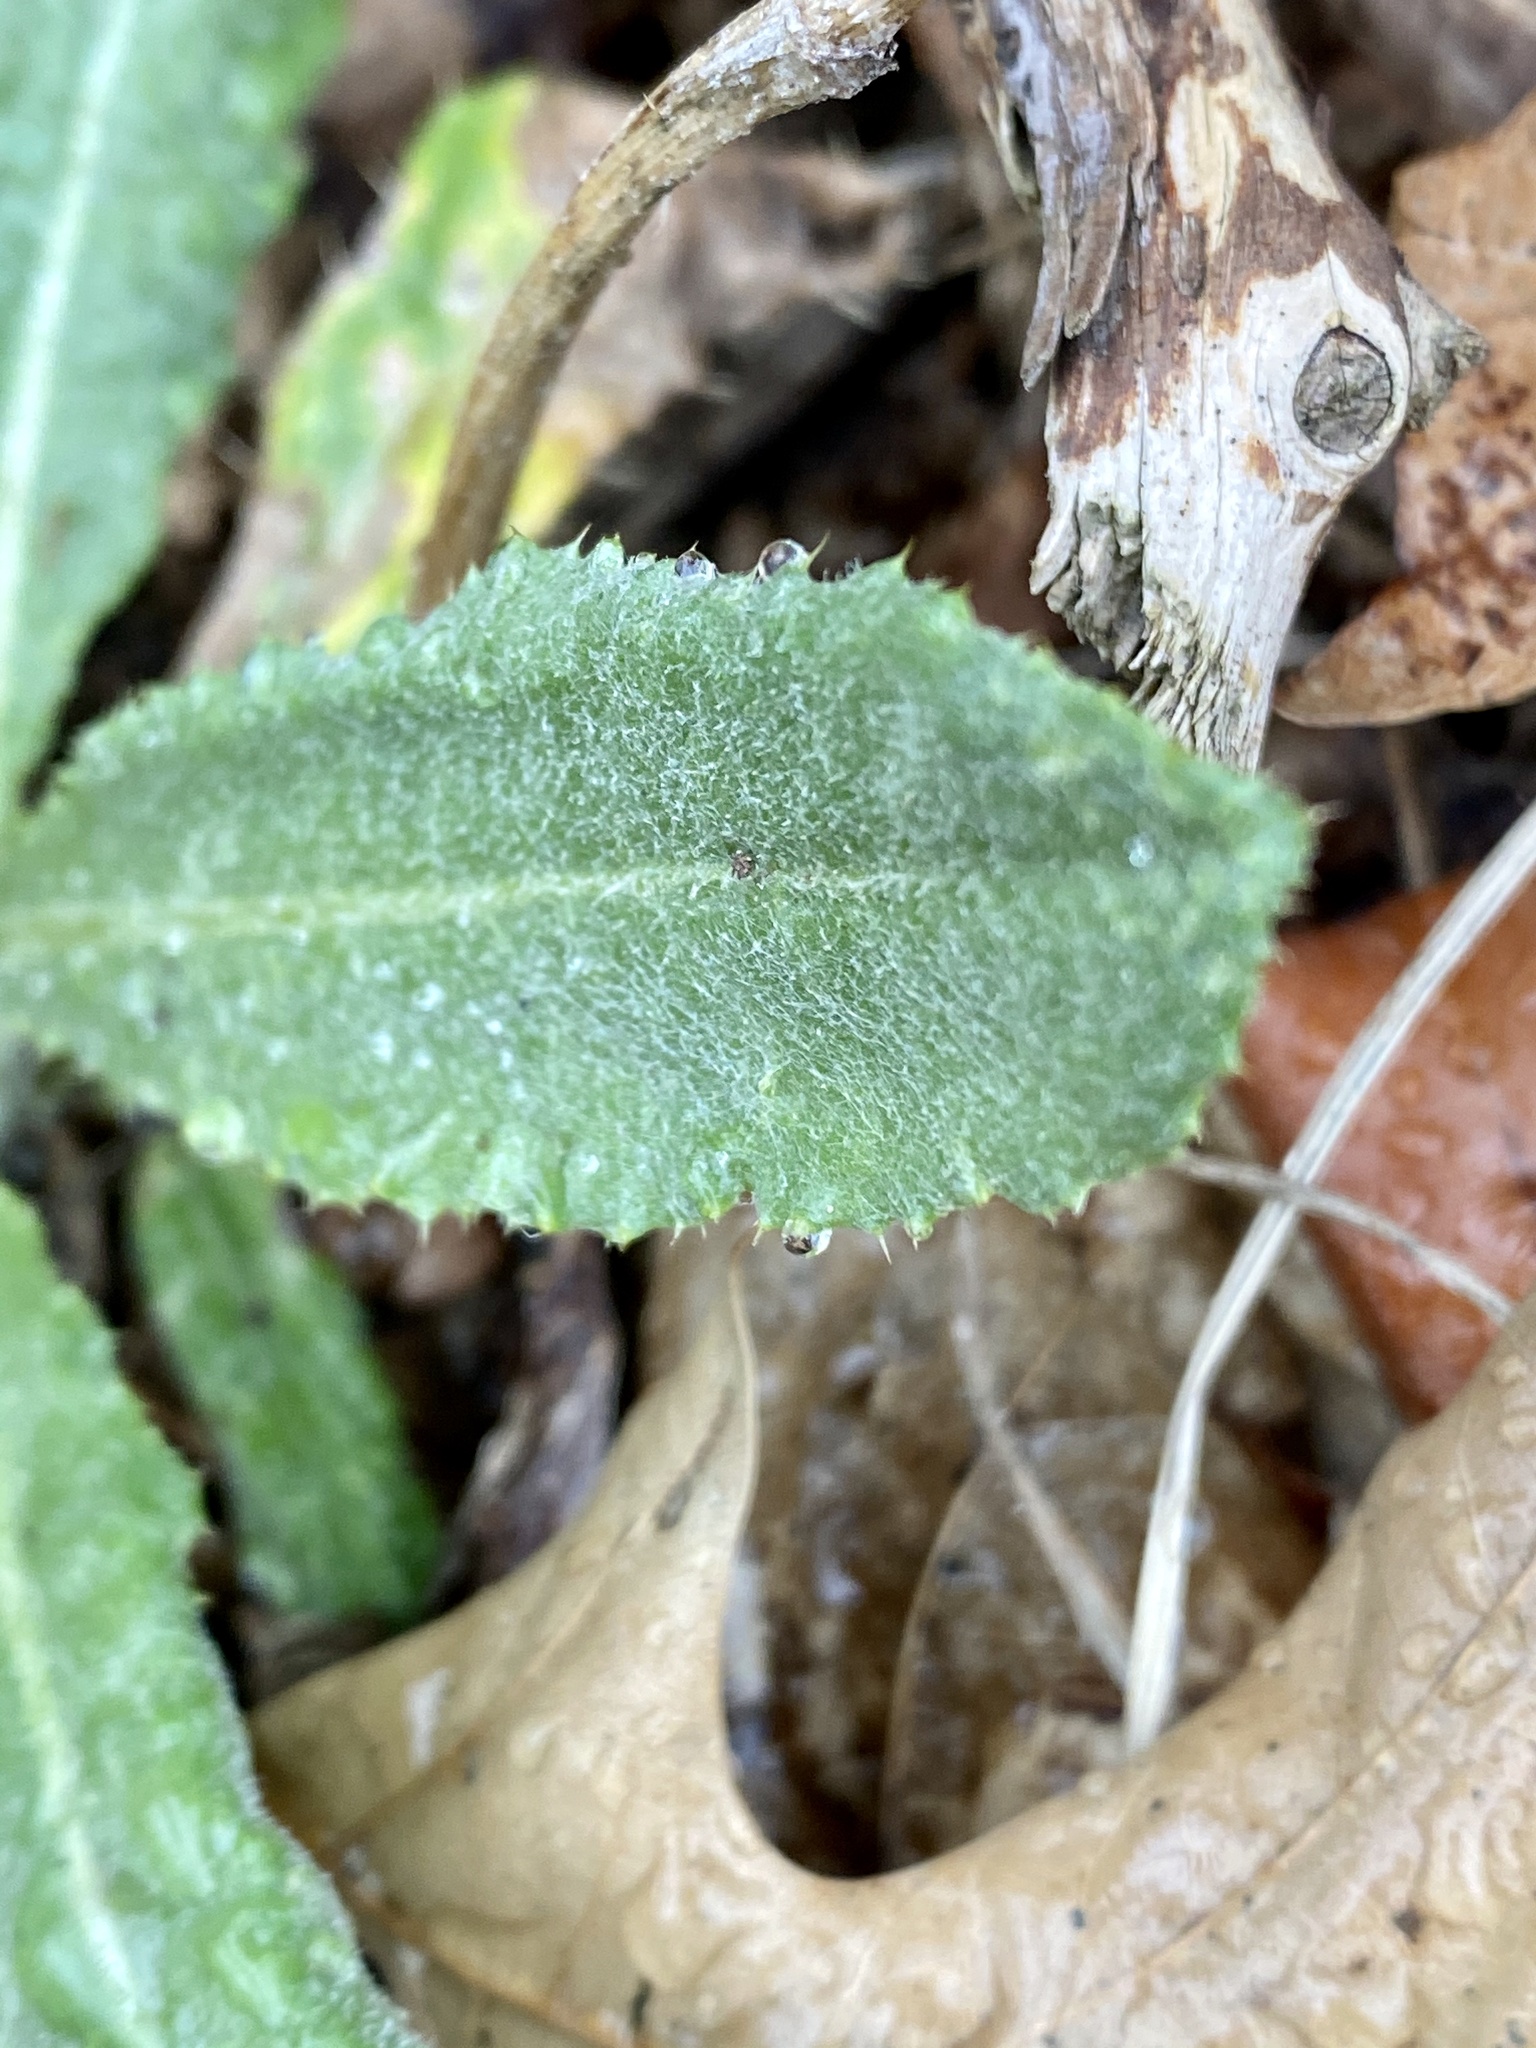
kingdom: Plantae
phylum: Tracheophyta
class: Magnoliopsida
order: Asterales
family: Asteraceae
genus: Cirsium
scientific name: Cirsium arvense
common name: Creeping thistle
